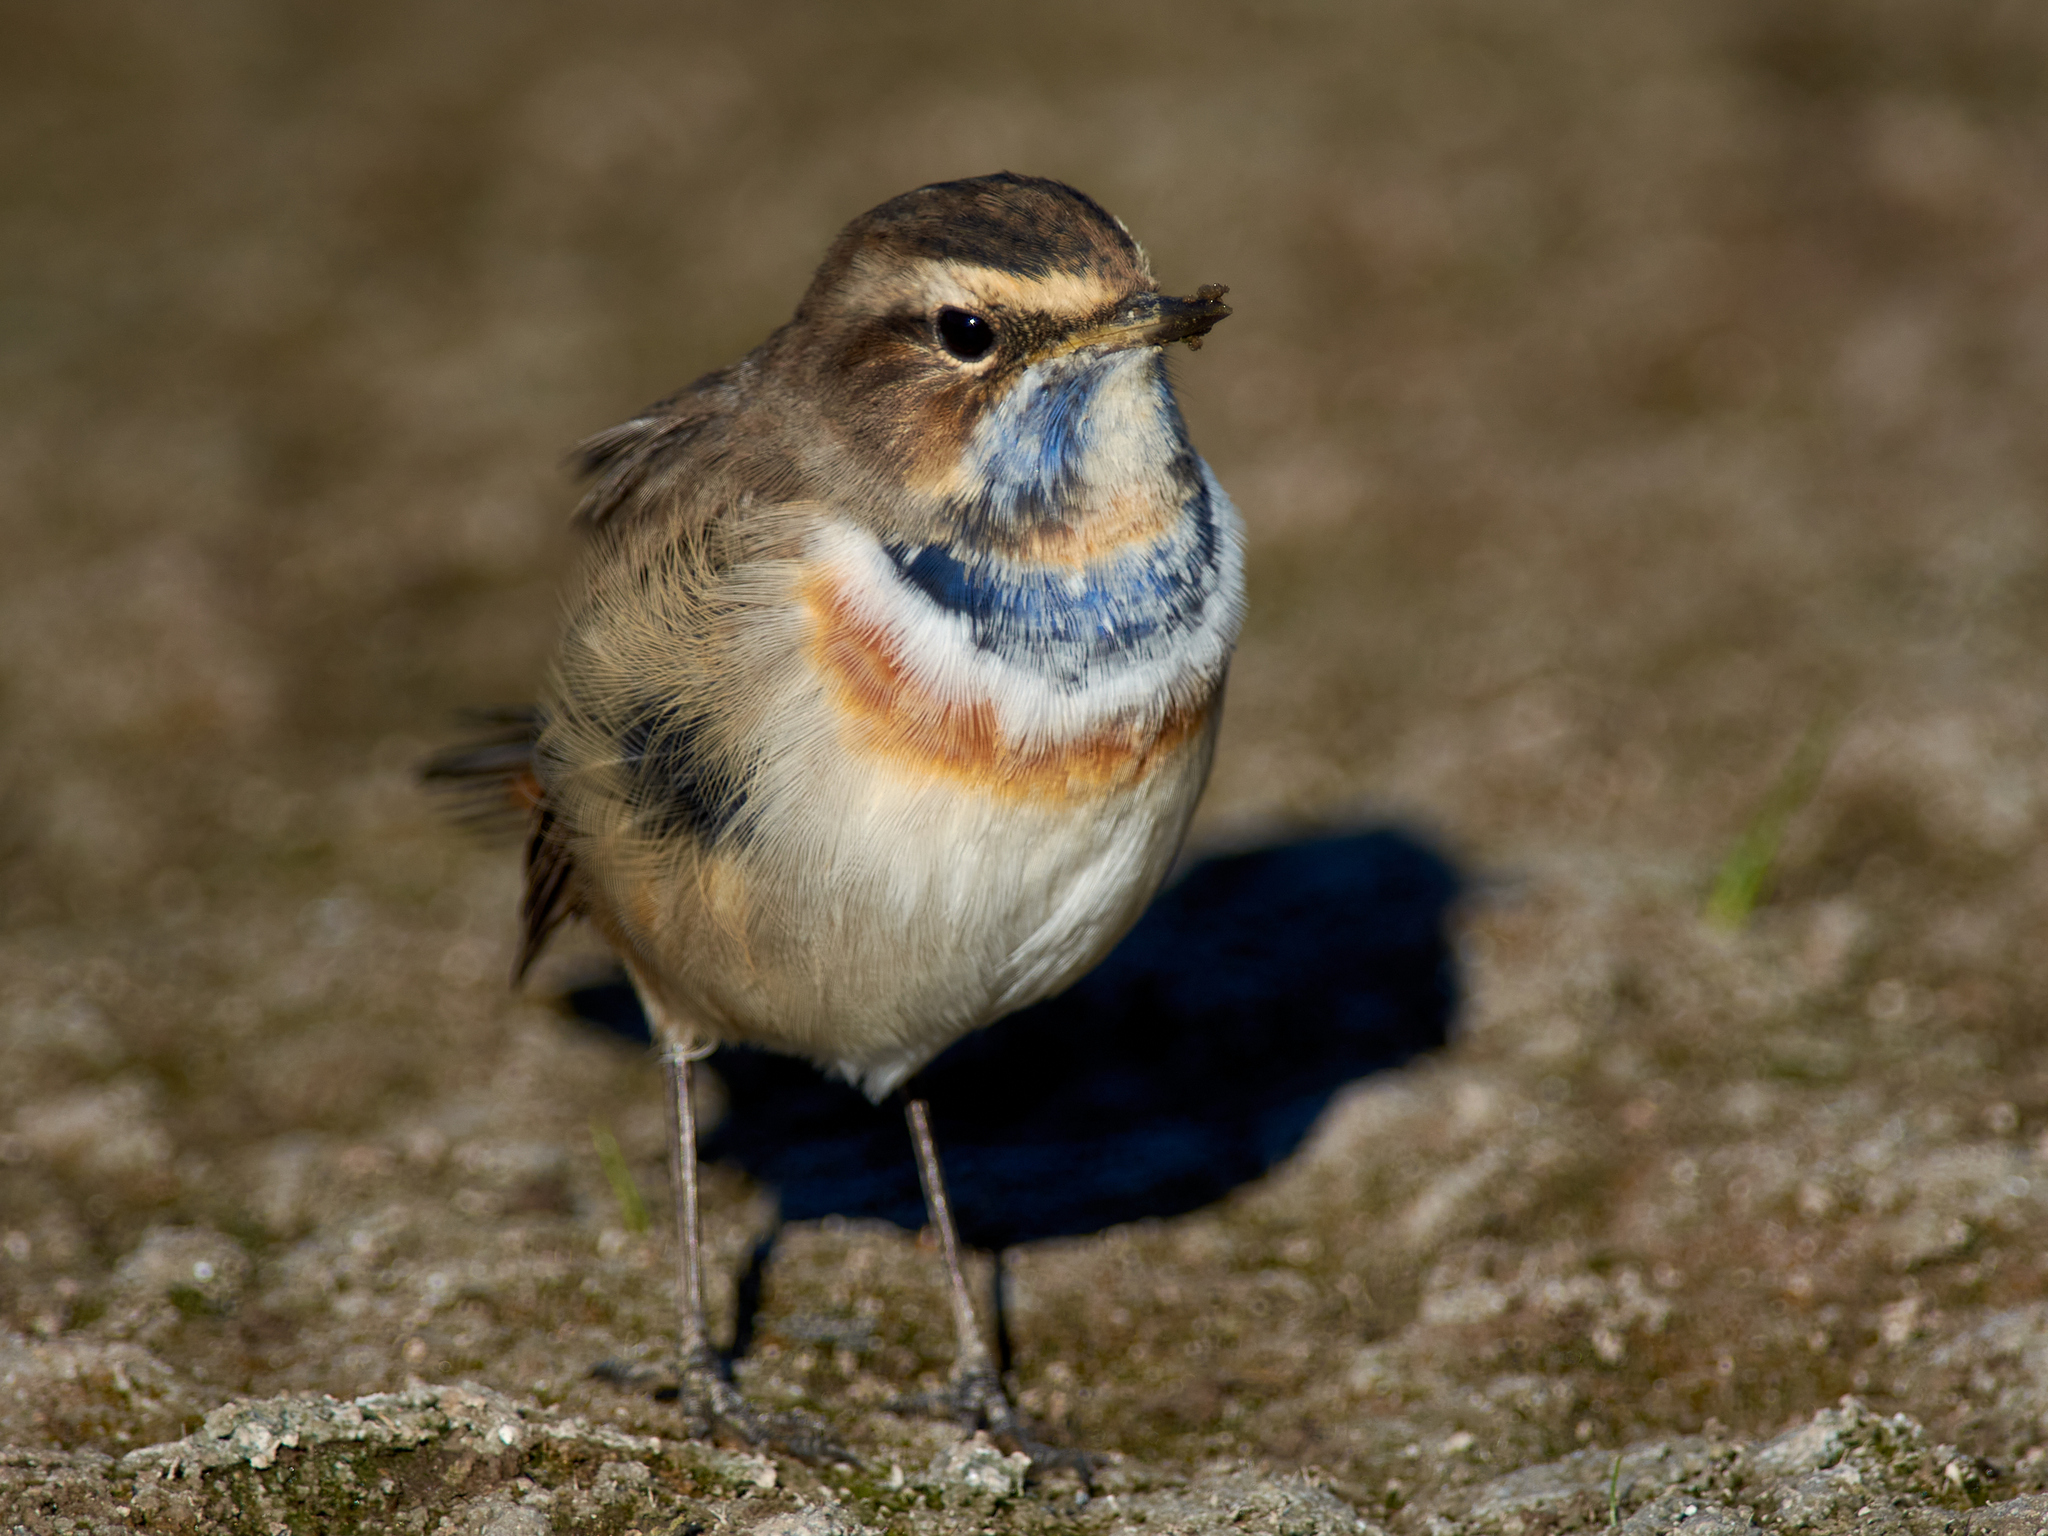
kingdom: Animalia
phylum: Chordata
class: Aves
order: Passeriformes
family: Muscicapidae
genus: Luscinia
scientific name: Luscinia svecica
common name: Bluethroat
